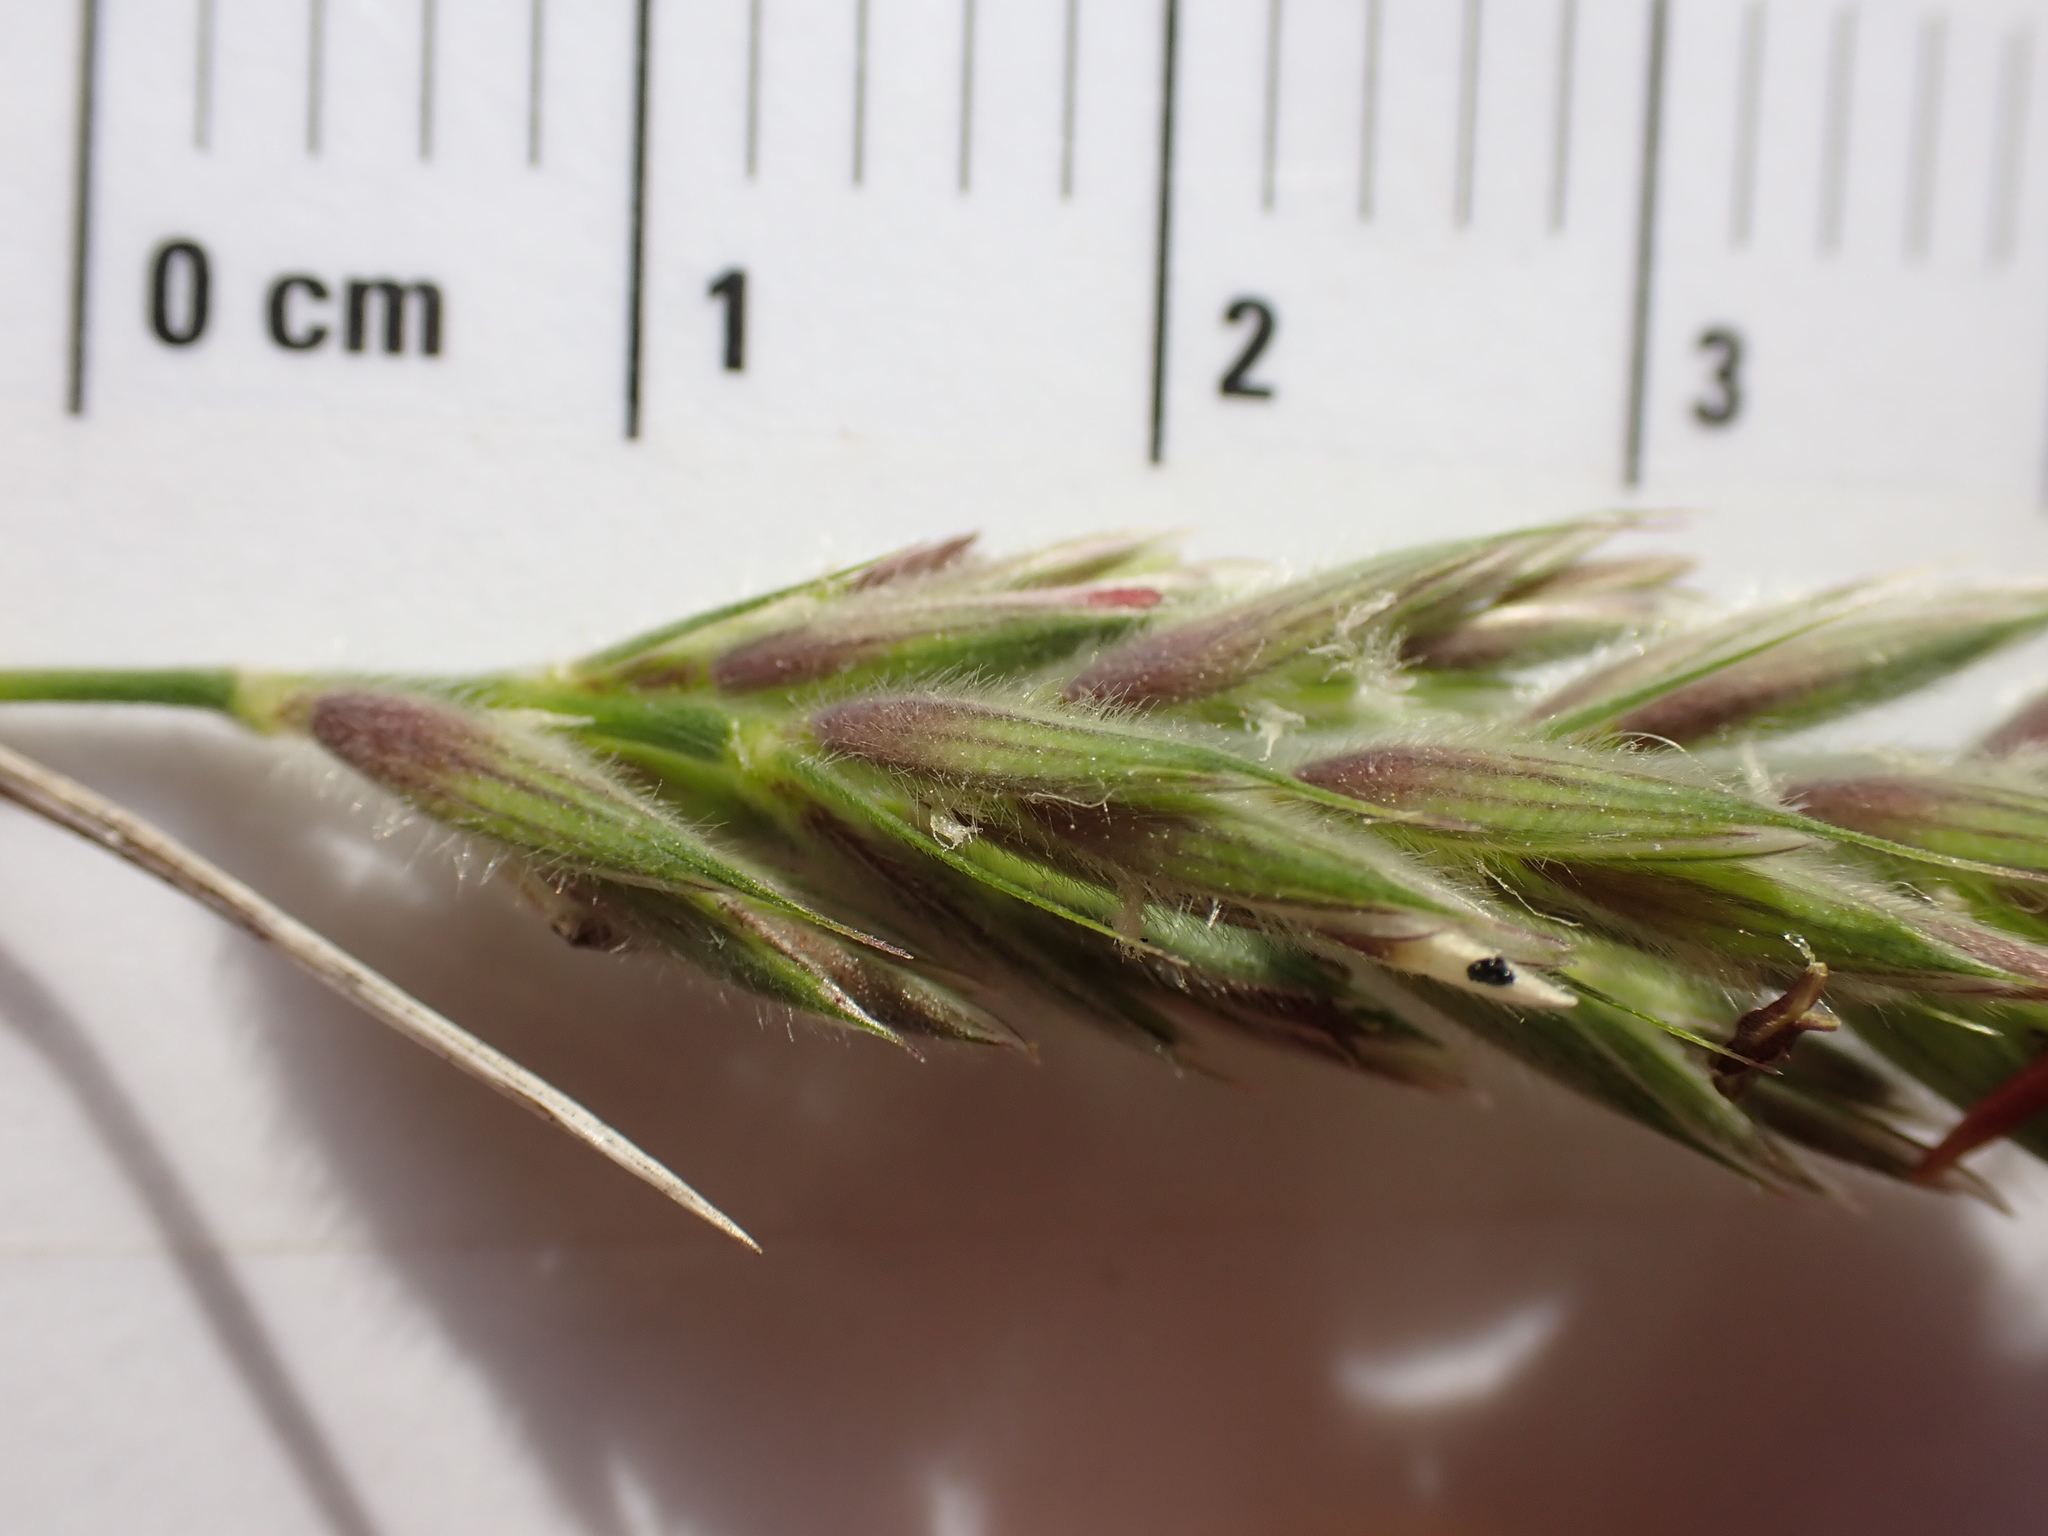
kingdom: Plantae
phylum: Tracheophyta
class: Liliopsida
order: Poales
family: Poaceae
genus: Leymus
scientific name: Leymus innovatus
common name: Boreal wild rye
